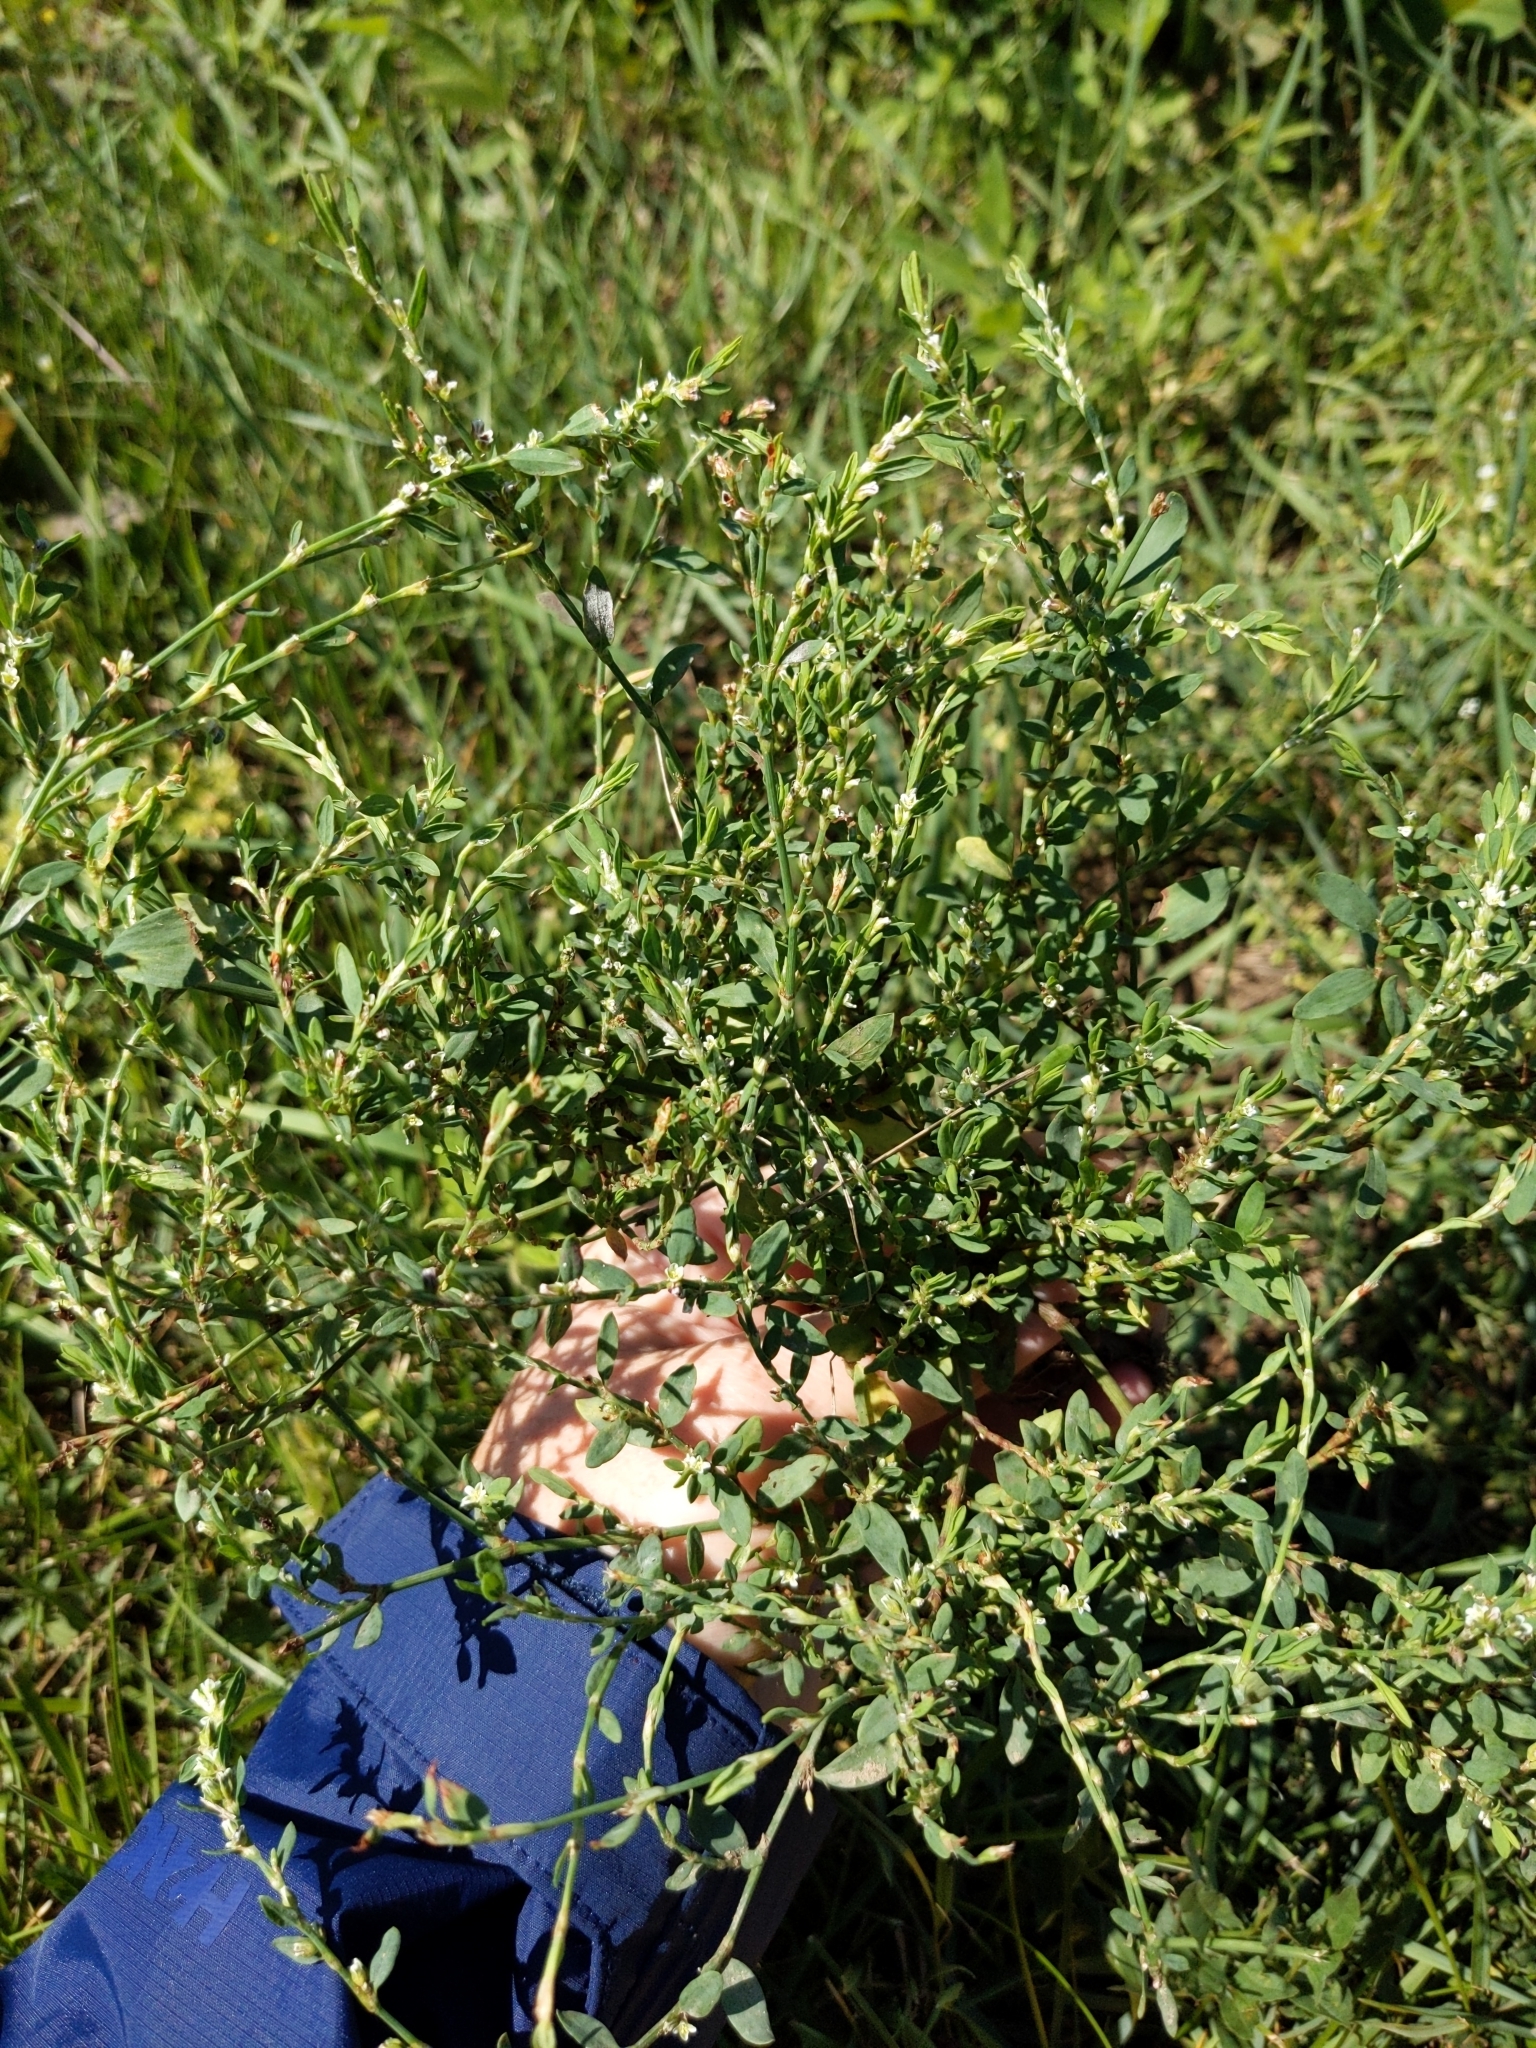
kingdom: Plantae
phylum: Tracheophyta
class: Magnoliopsida
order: Caryophyllales
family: Polygonaceae
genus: Polygonum
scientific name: Polygonum aviculare
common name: Prostrate knotweed
